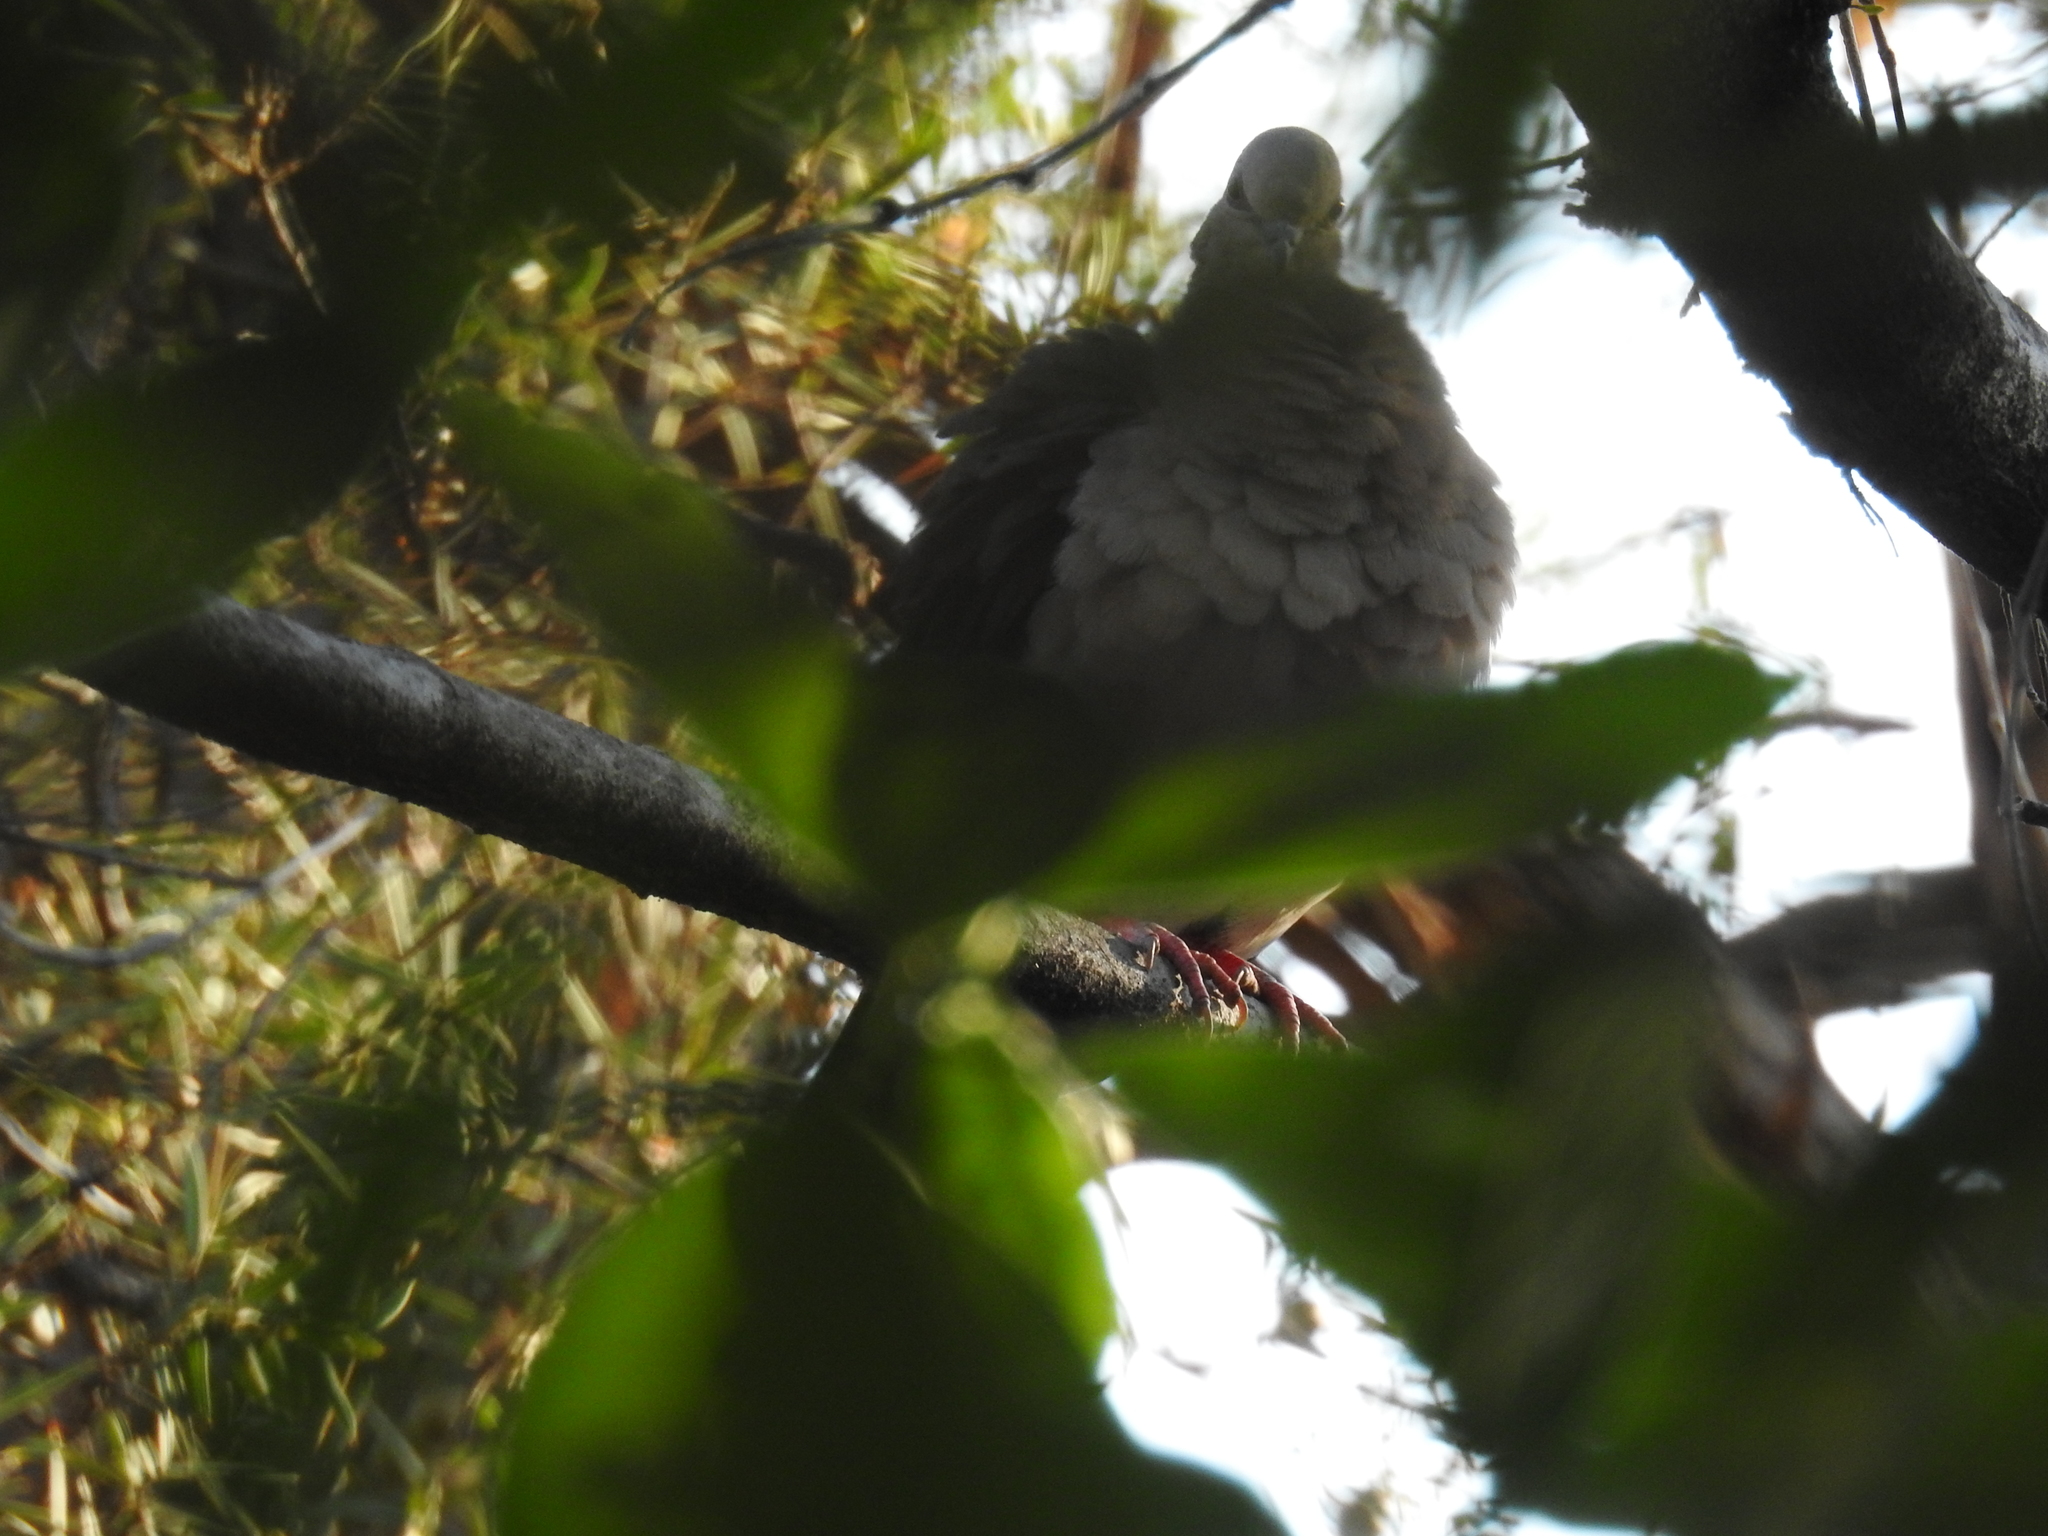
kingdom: Animalia
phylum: Chordata
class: Aves
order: Columbiformes
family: Columbidae
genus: Leptotila
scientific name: Leptotila verreauxi
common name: White-tipped dove
